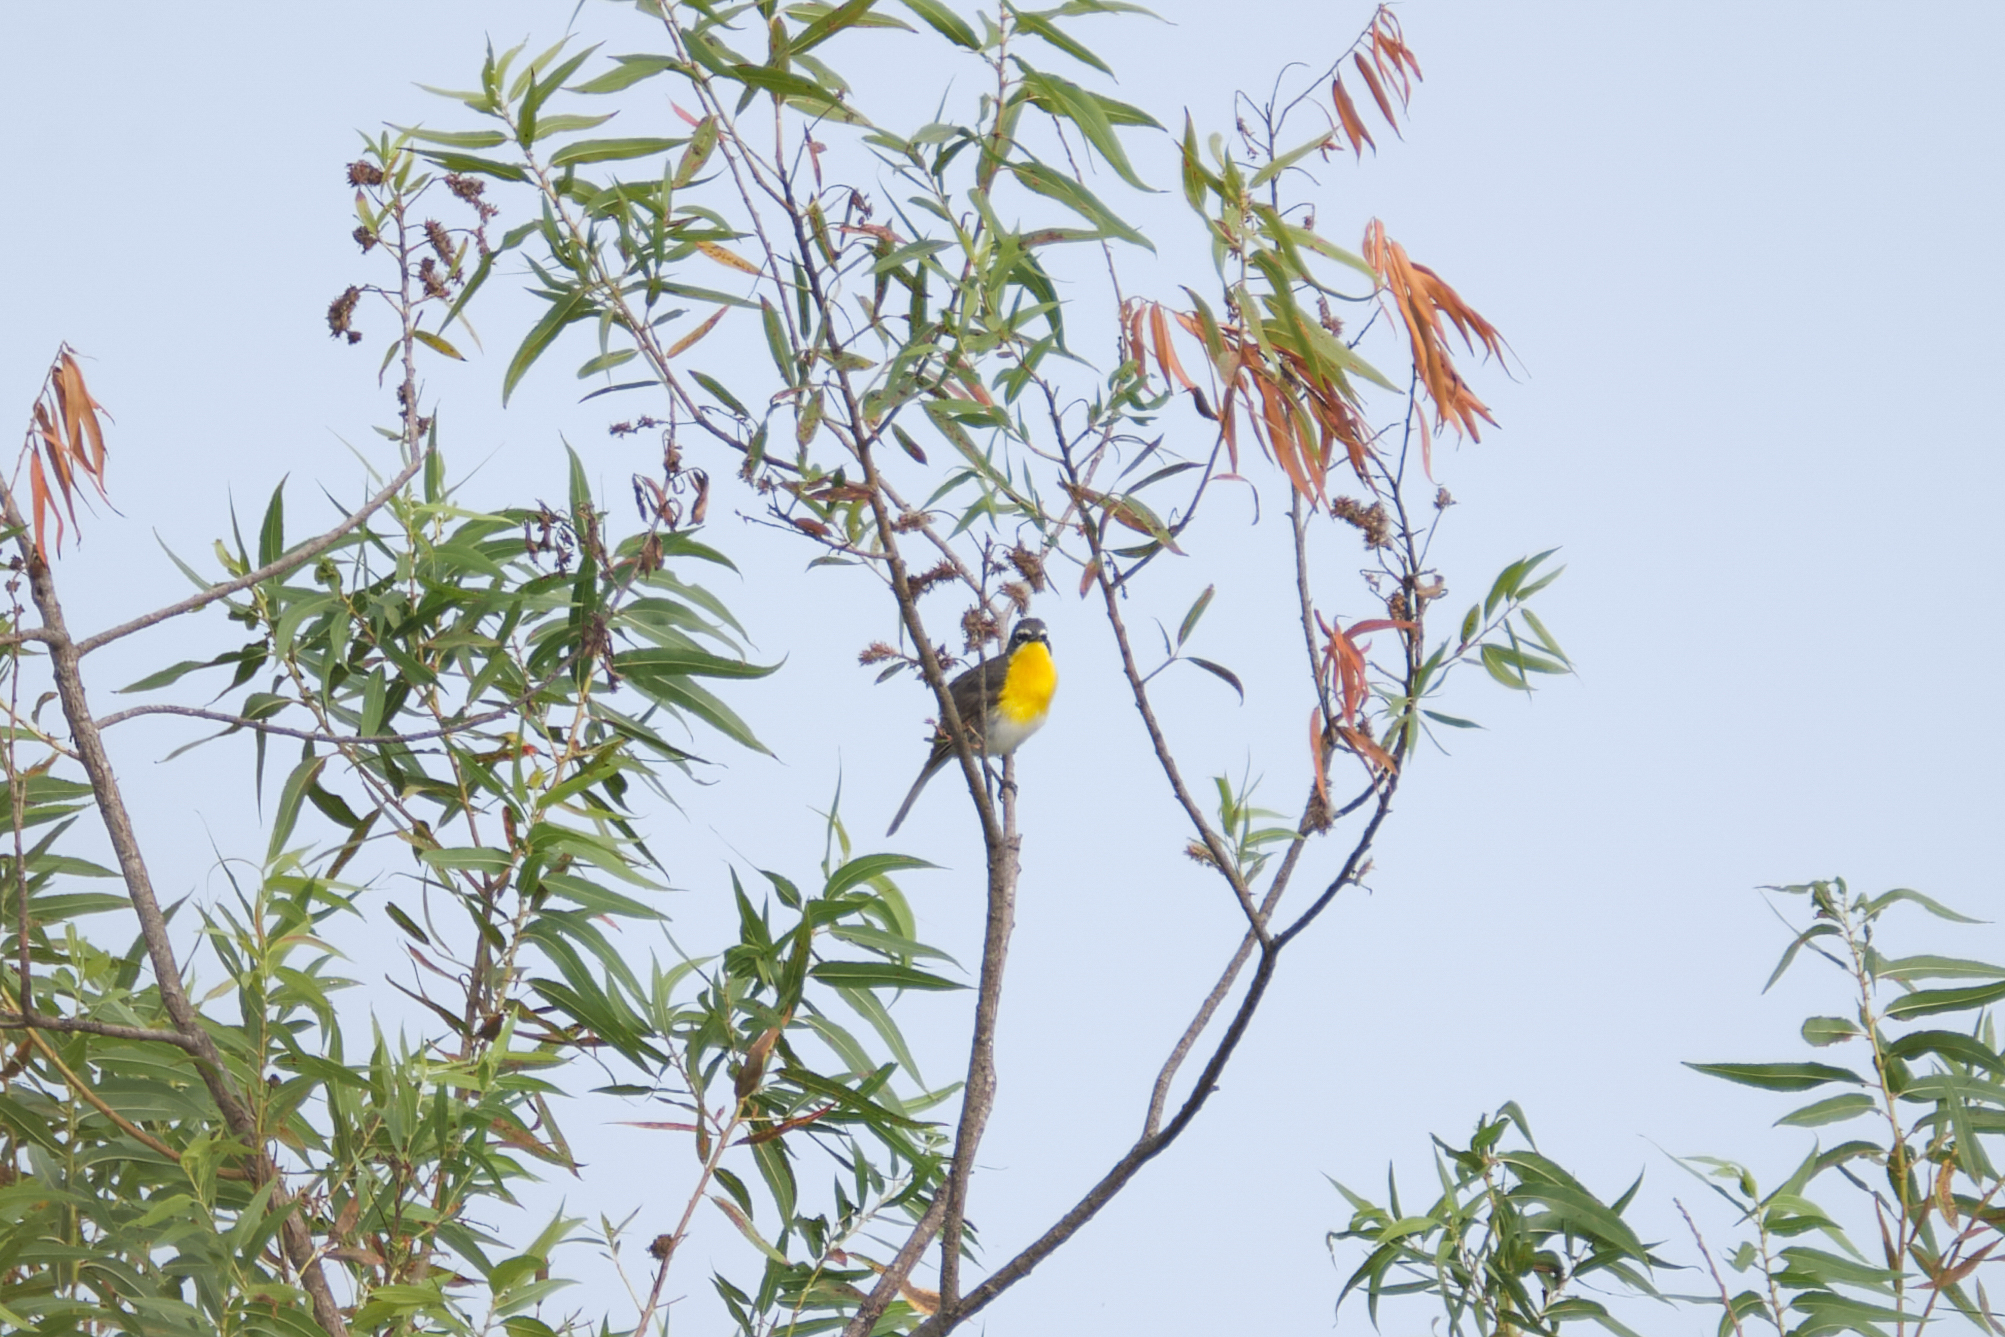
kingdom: Animalia
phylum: Chordata
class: Aves
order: Passeriformes
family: Parulidae
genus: Icteria
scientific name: Icteria virens
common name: Yellow-breasted chat
